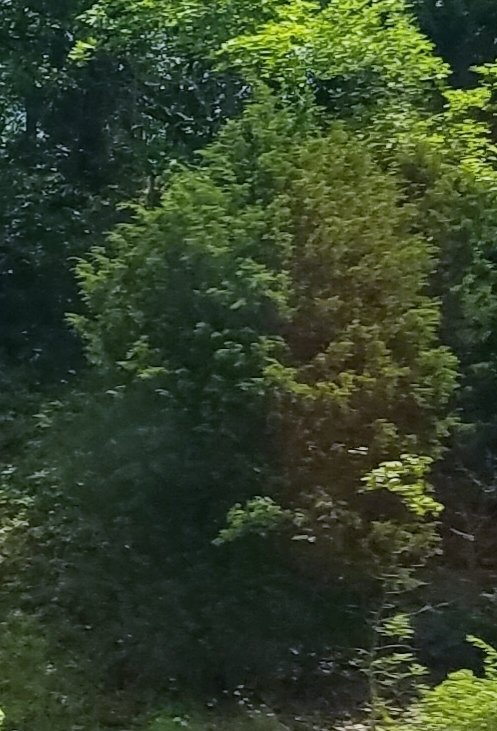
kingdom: Plantae
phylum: Tracheophyta
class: Pinopsida
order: Pinales
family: Cupressaceae
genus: Juniperus
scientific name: Juniperus virginiana
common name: Red juniper
